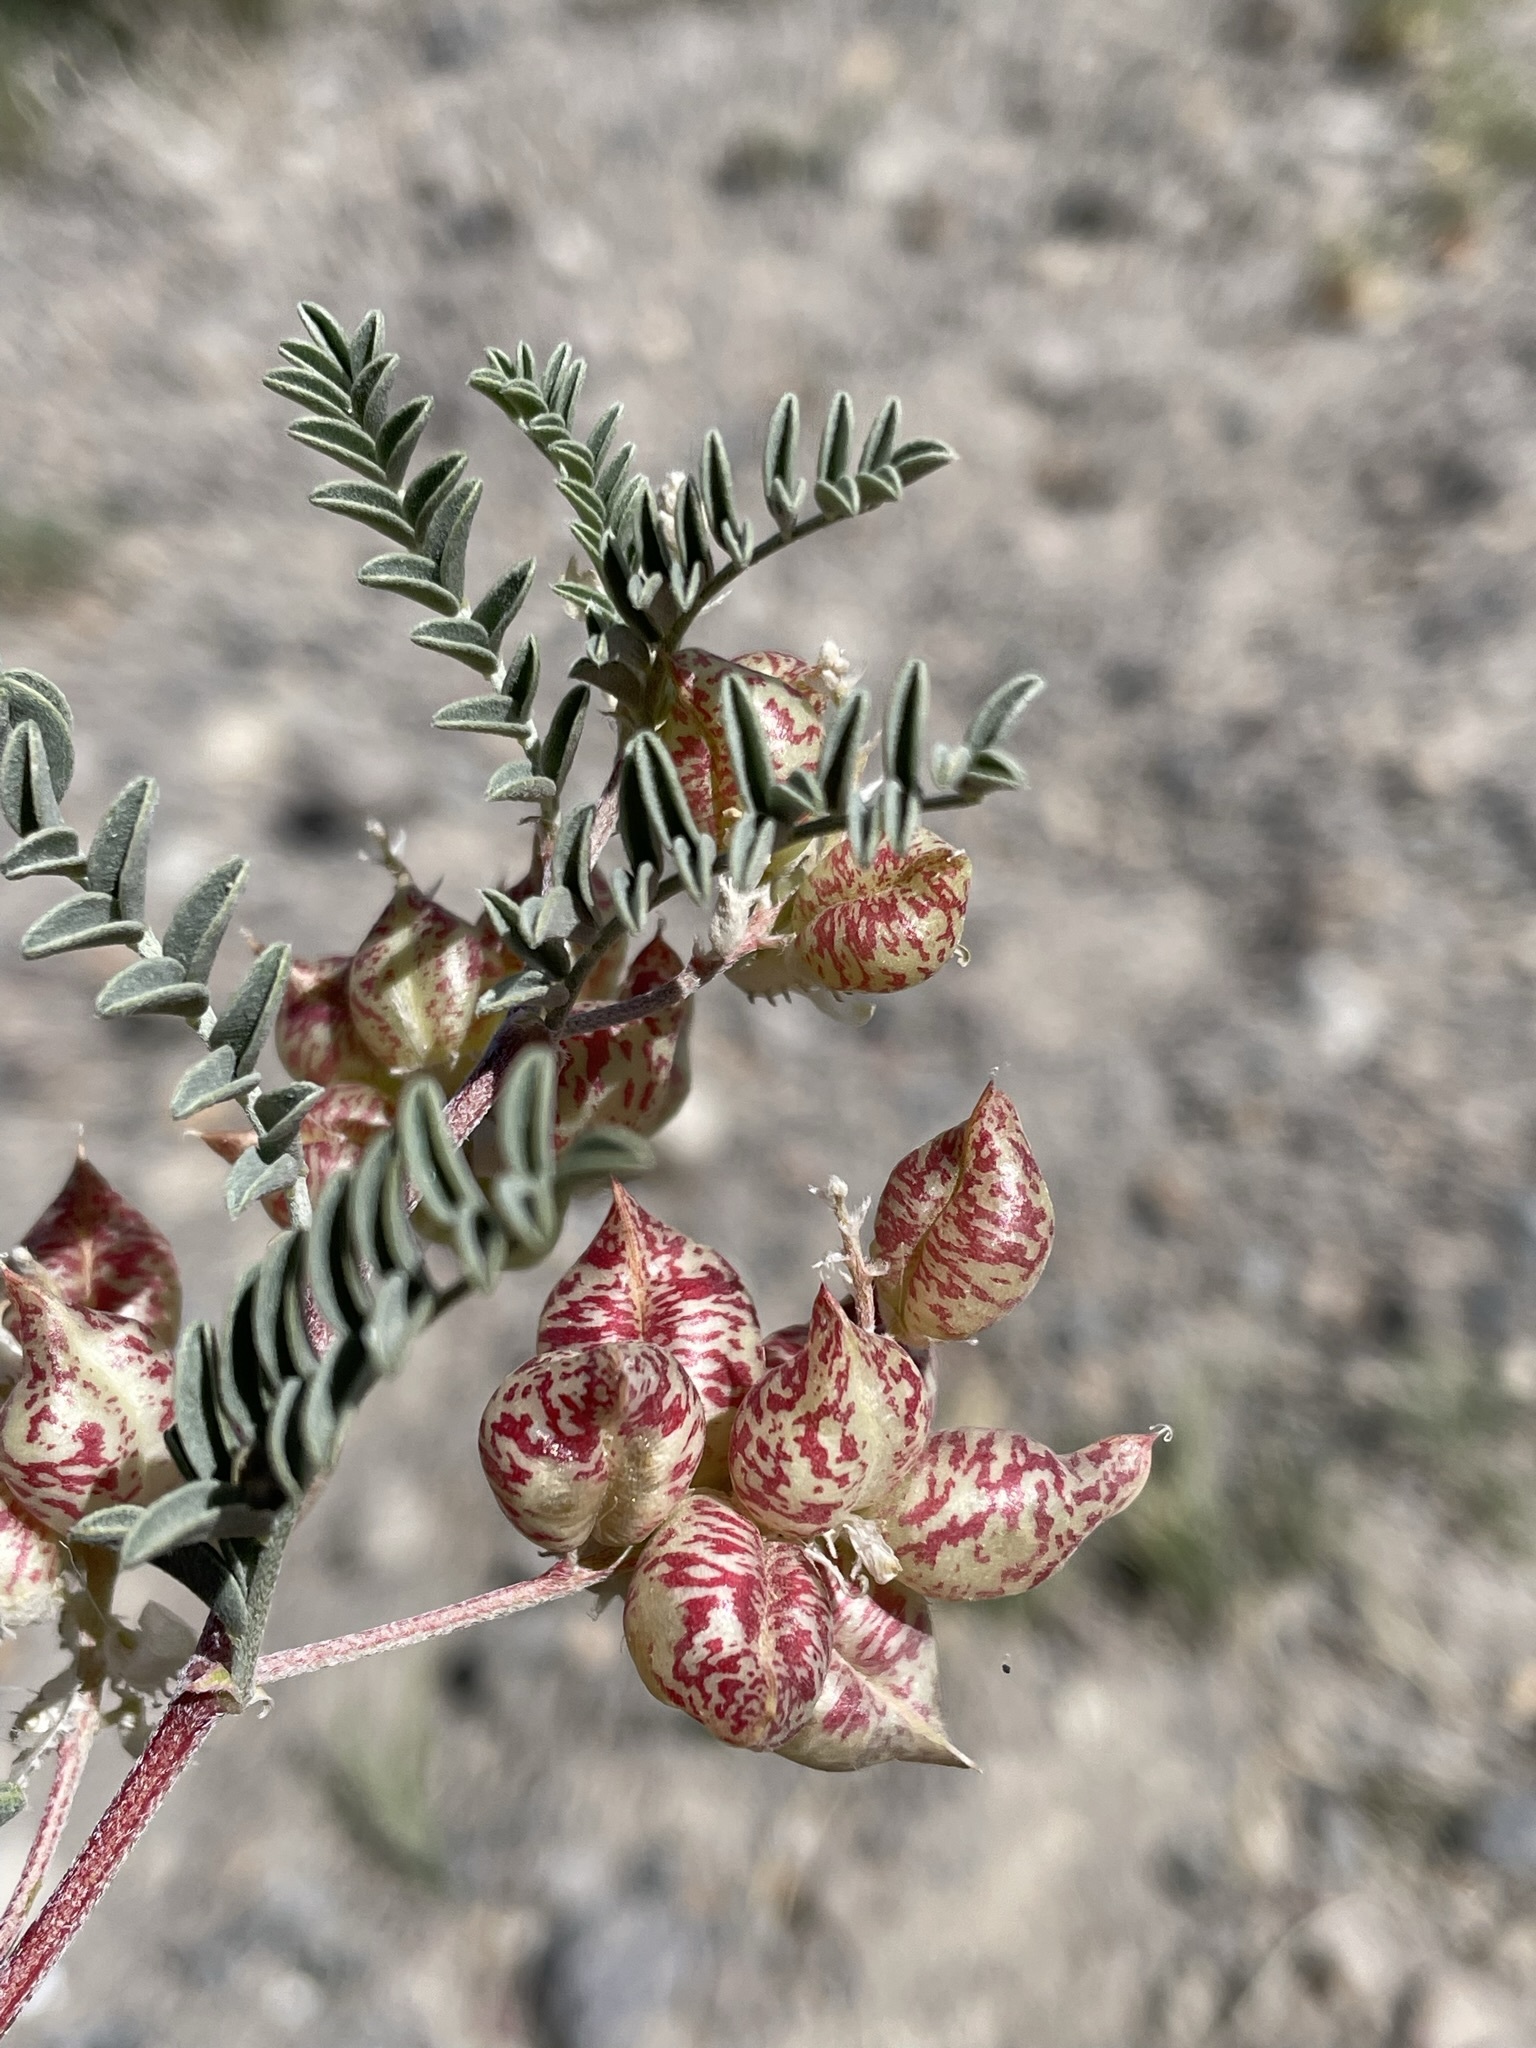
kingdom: Plantae
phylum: Tracheophyta
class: Magnoliopsida
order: Fabales
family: Fabaceae
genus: Astragalus
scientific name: Astragalus lentiginosus
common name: Freckled milkvetch
